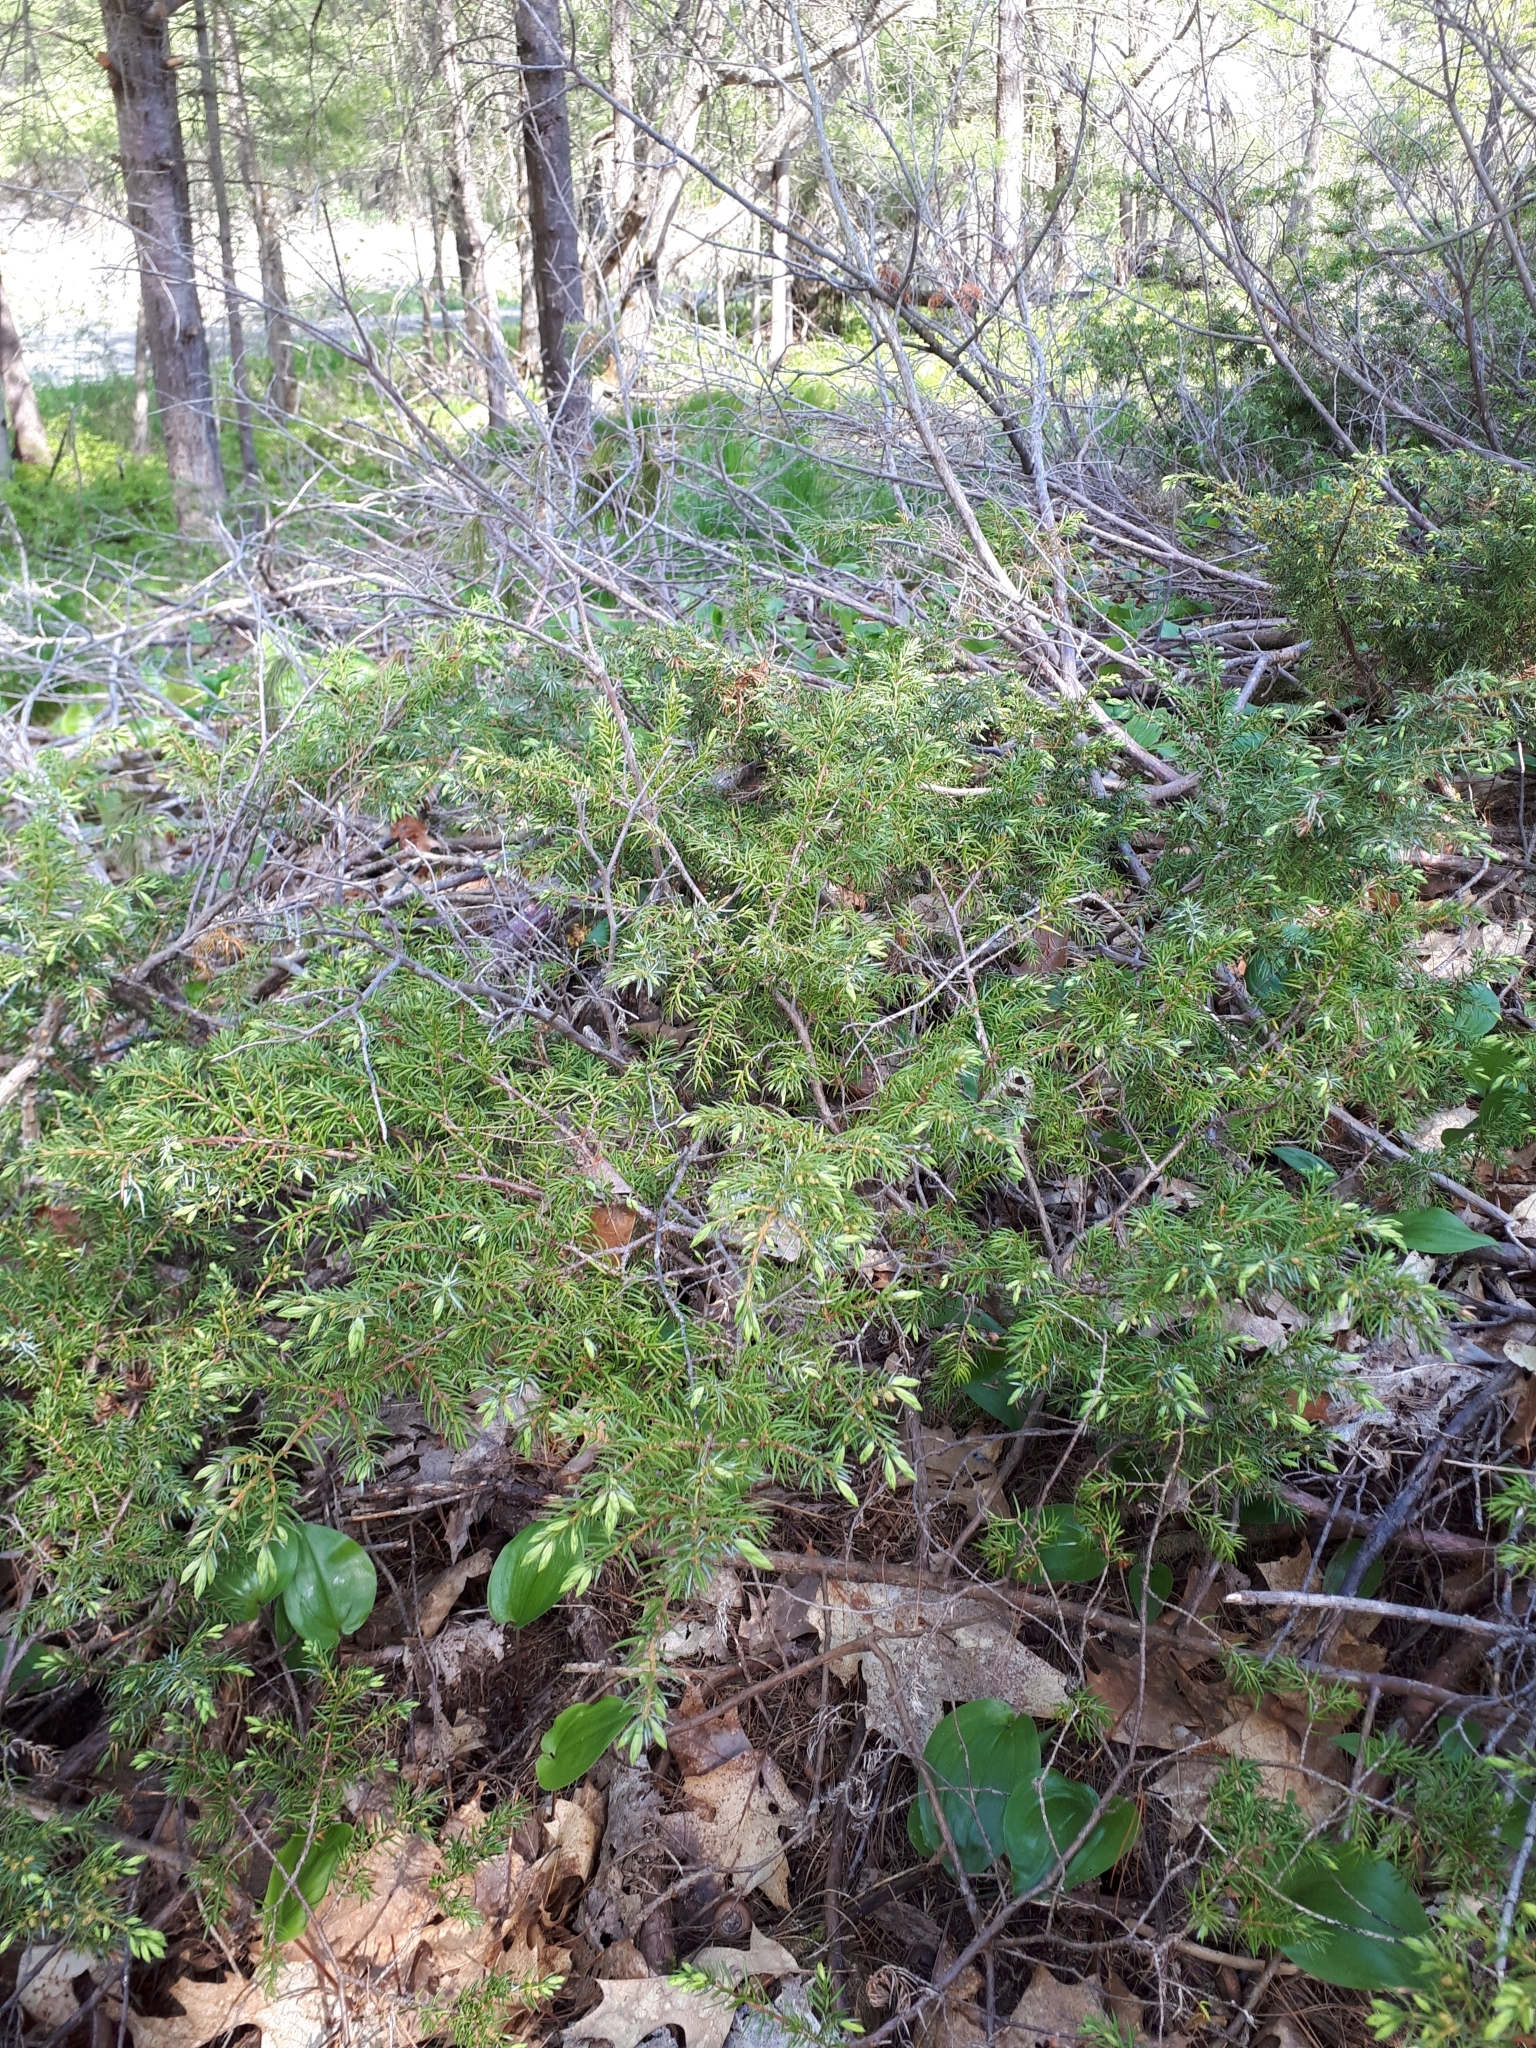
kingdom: Plantae
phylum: Tracheophyta
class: Pinopsida
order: Pinales
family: Cupressaceae
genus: Juniperus
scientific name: Juniperus communis
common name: Common juniper
